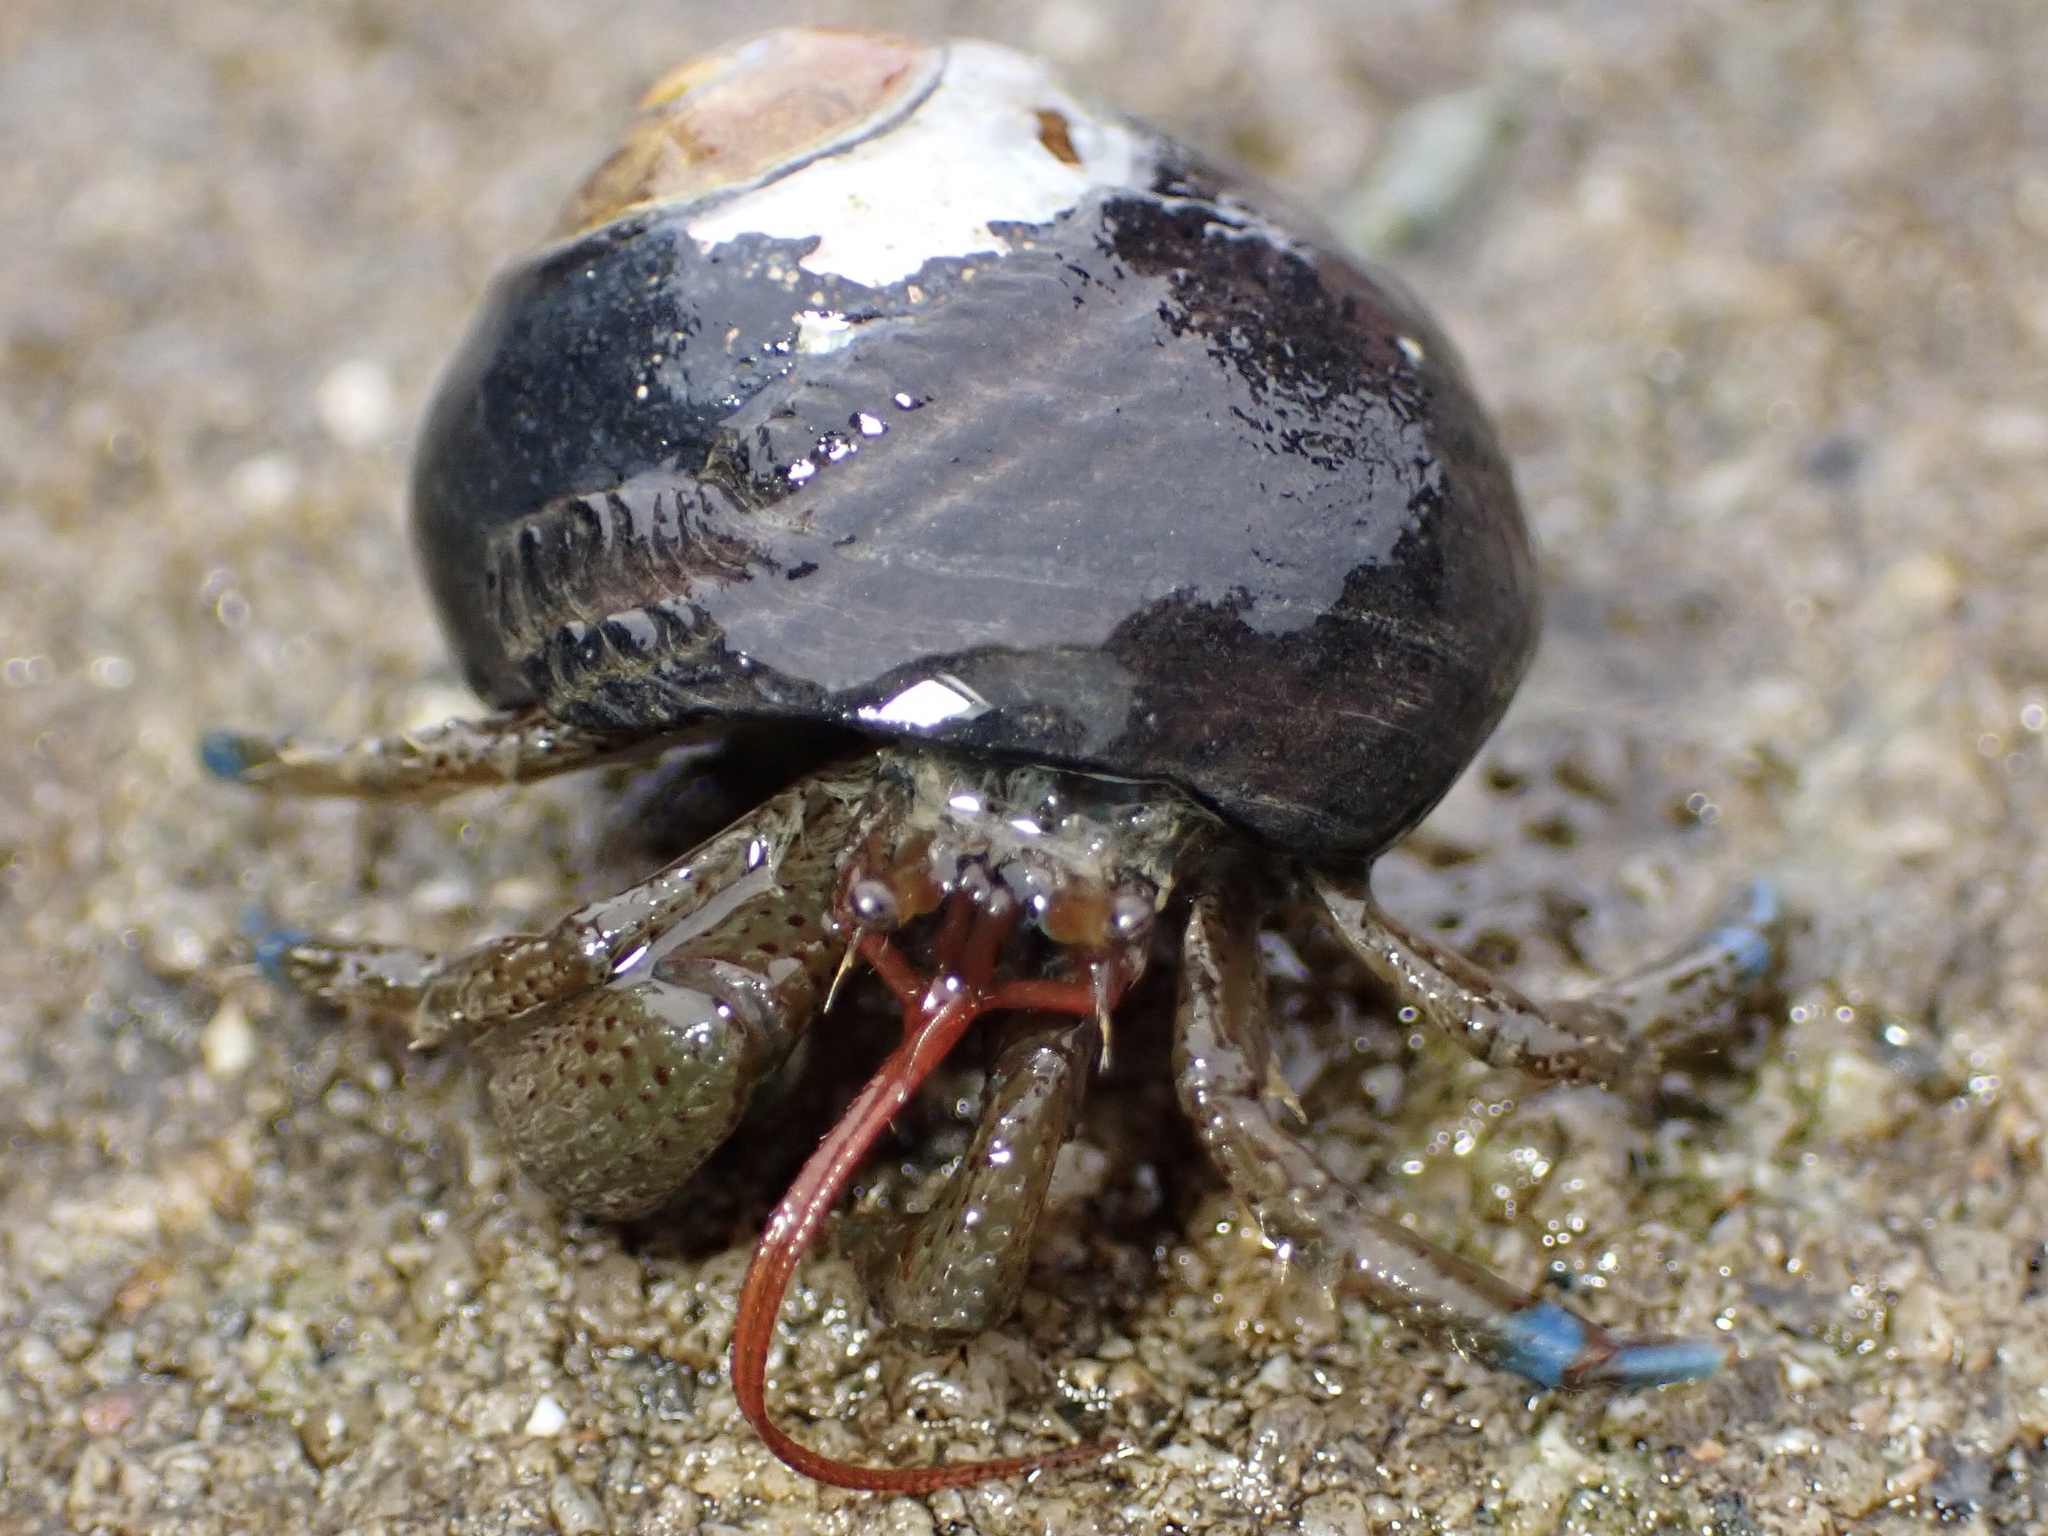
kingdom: Animalia
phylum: Arthropoda
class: Malacostraca
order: Decapoda
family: Paguridae
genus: Pagurus
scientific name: Pagurus samuelis
